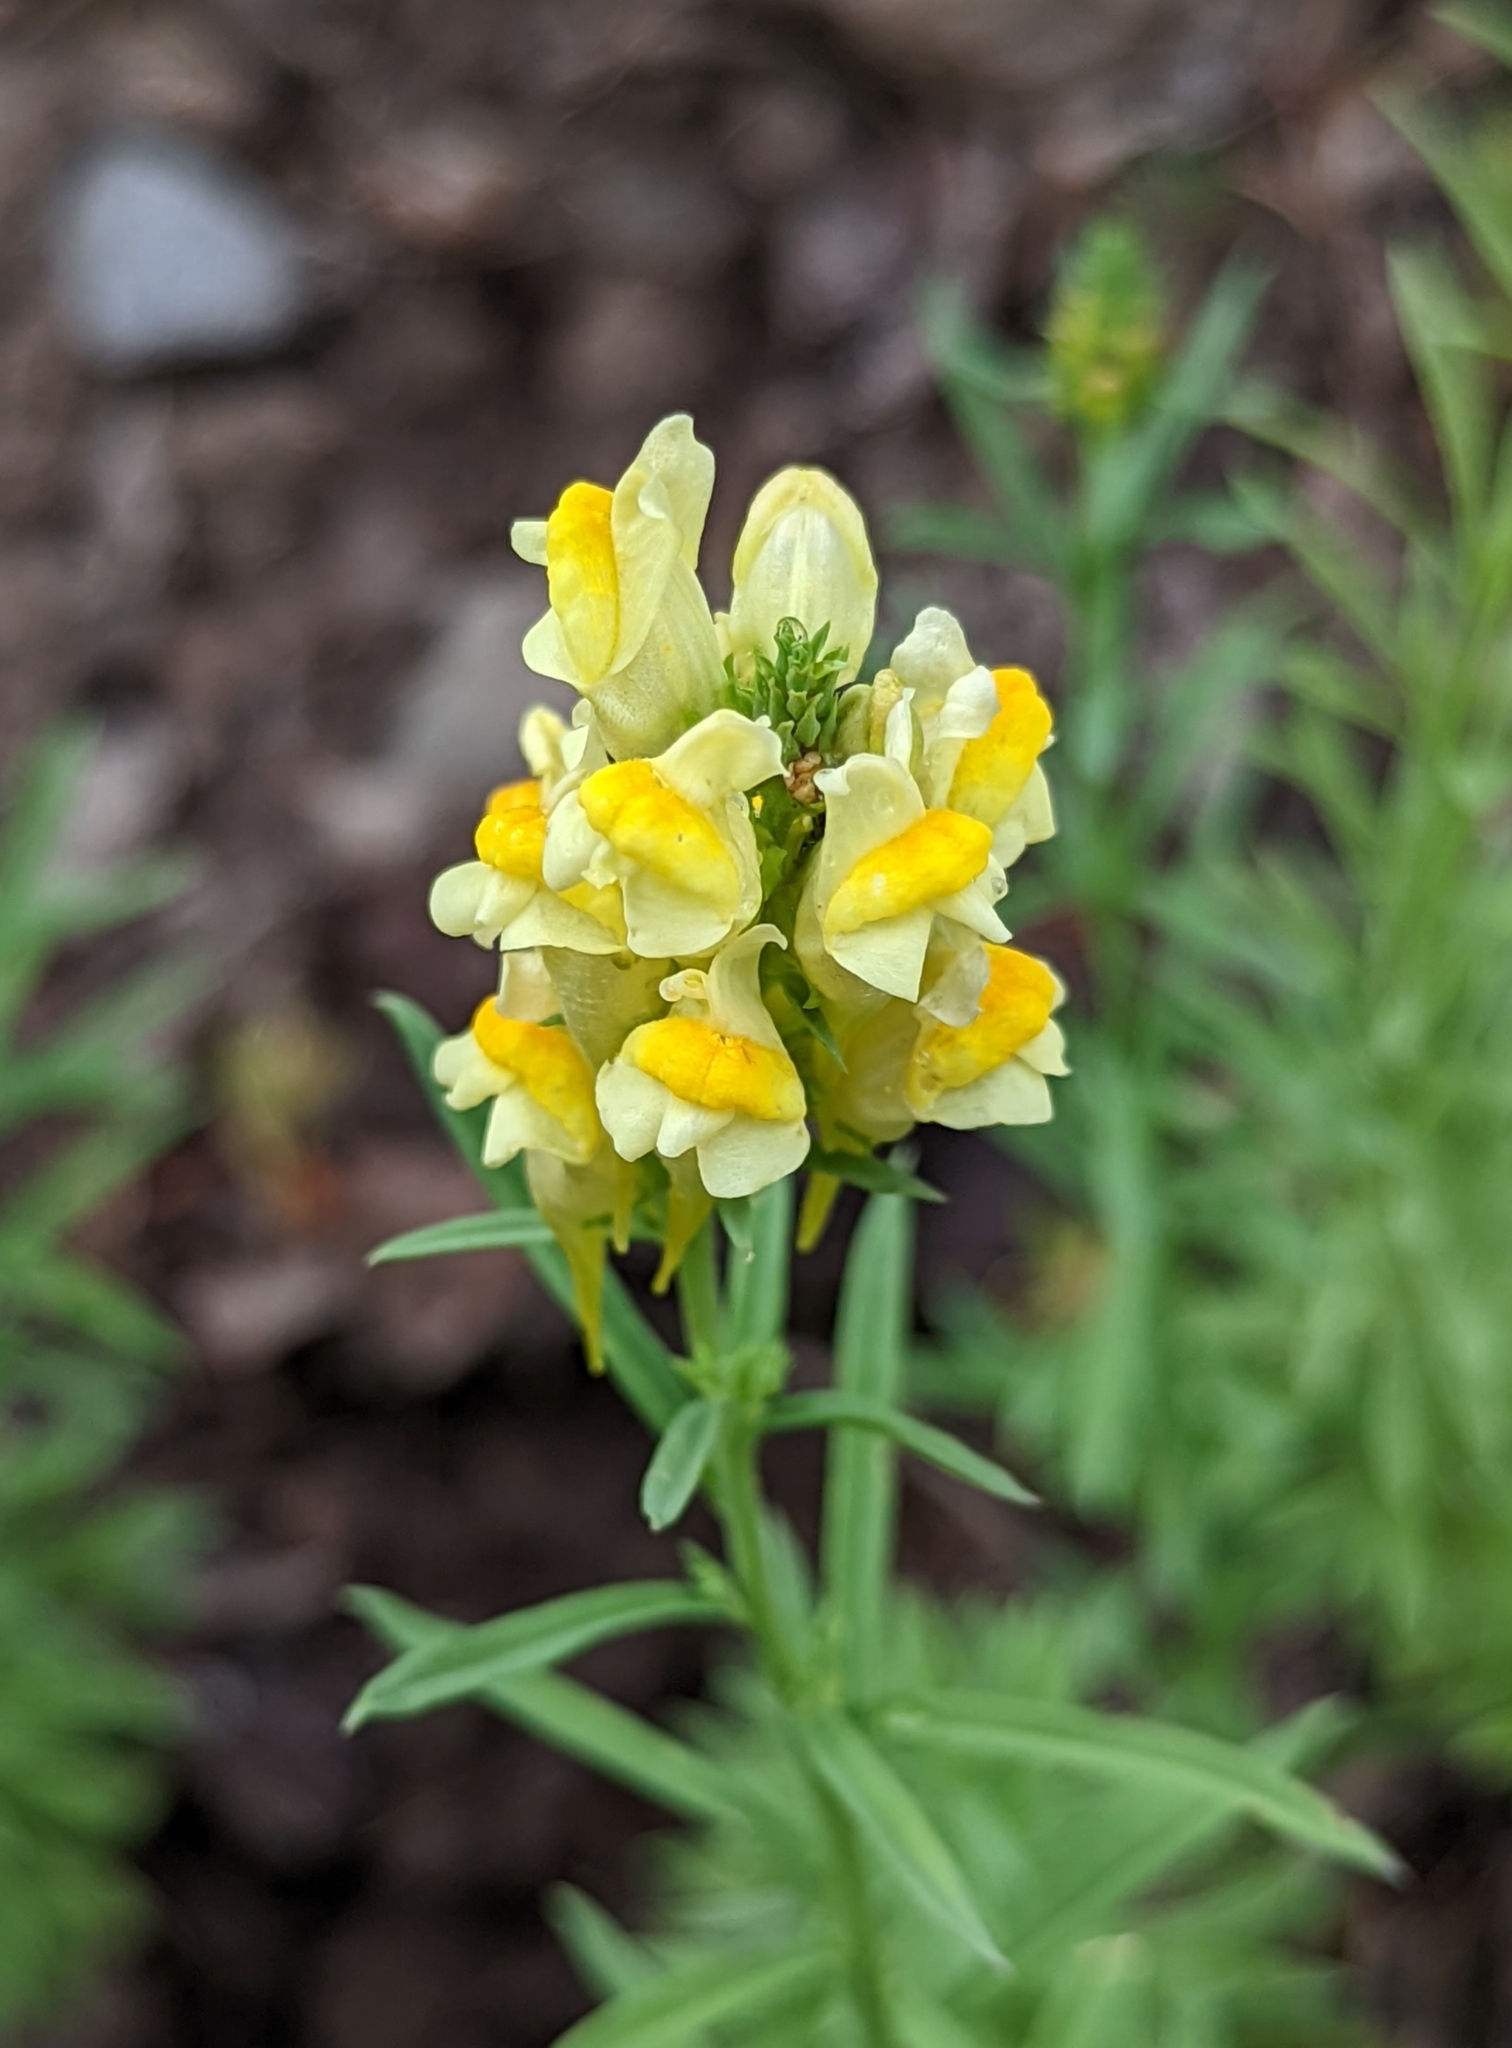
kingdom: Plantae
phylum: Tracheophyta
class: Magnoliopsida
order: Lamiales
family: Plantaginaceae
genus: Linaria
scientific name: Linaria vulgaris
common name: Butter and eggs
